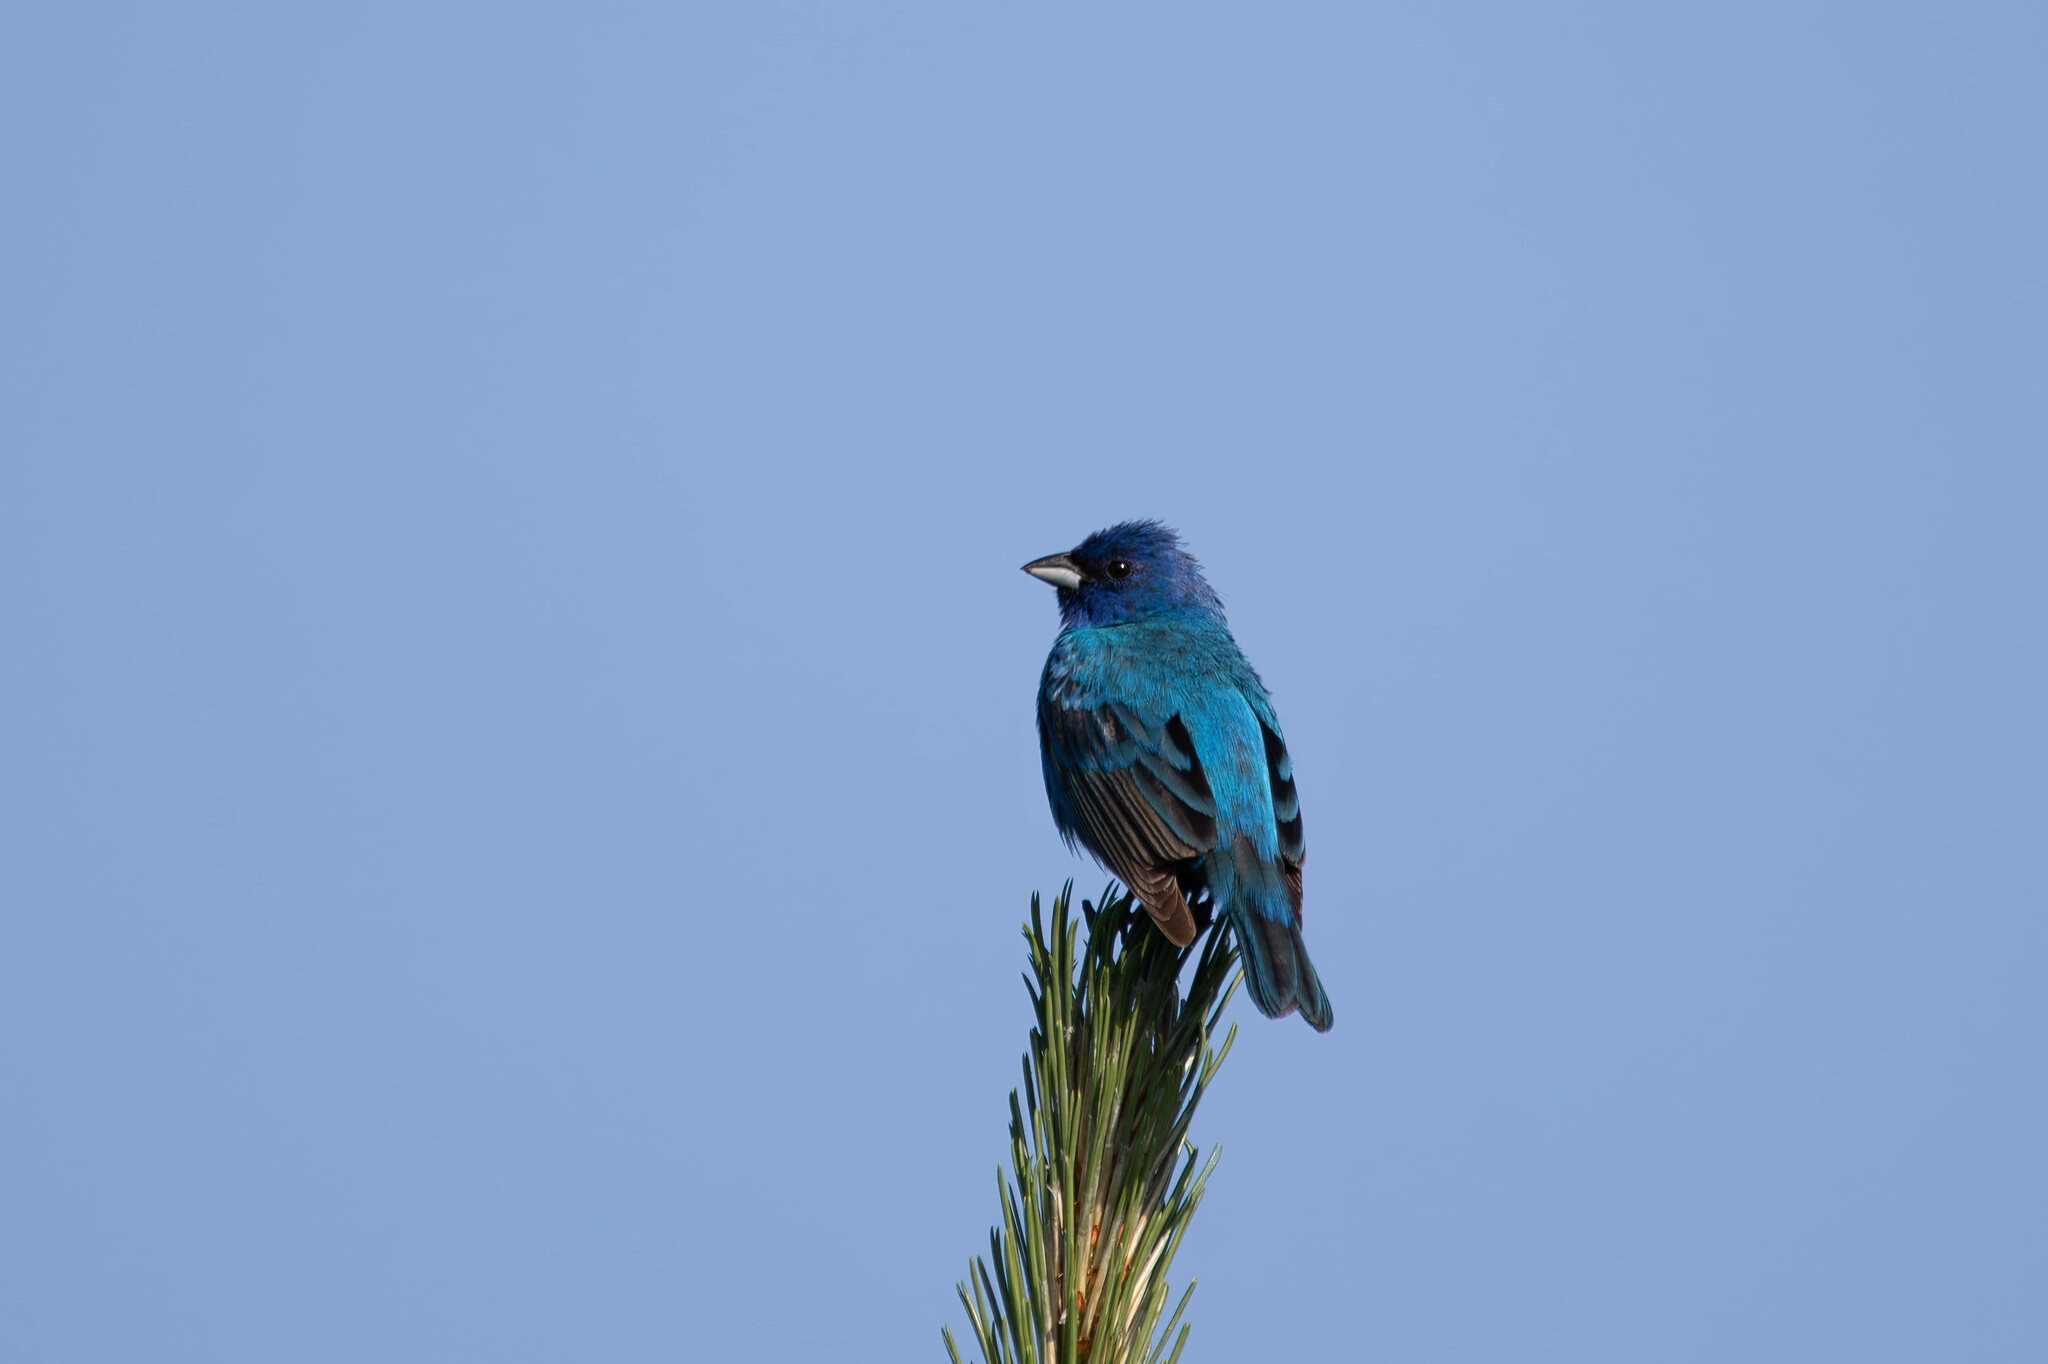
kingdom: Animalia
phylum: Chordata
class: Aves
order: Passeriformes
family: Cardinalidae
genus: Passerina
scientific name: Passerina cyanea
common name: Indigo bunting
